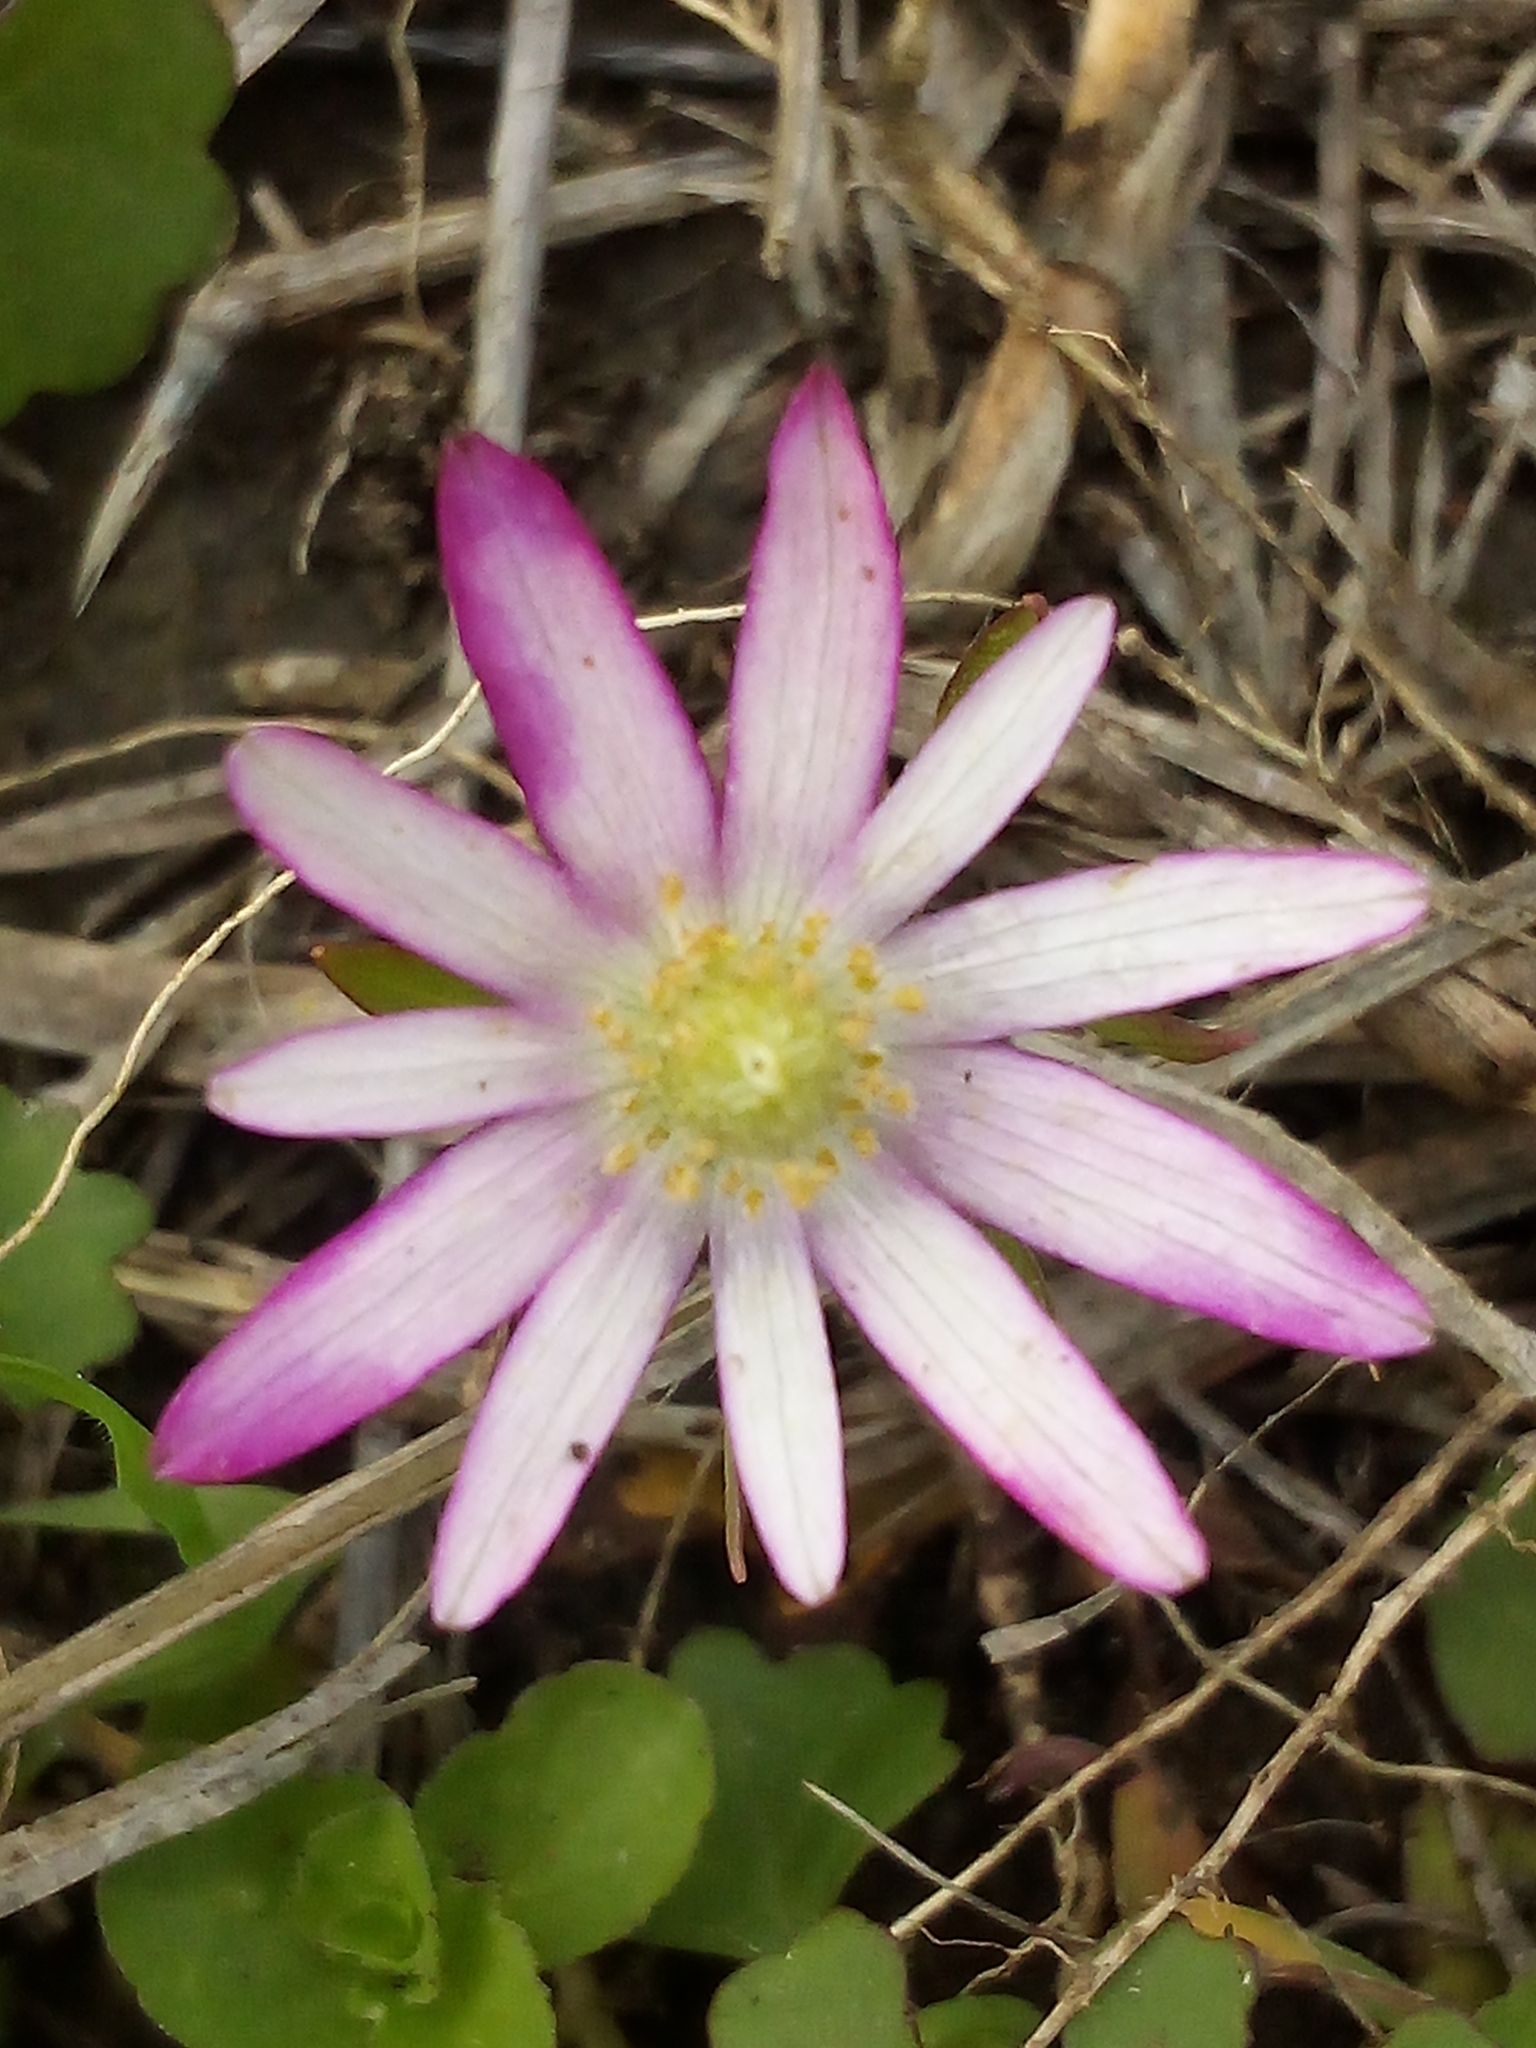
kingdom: Plantae
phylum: Tracheophyta
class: Magnoliopsida
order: Ranunculales
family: Ranunculaceae
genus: Anemone
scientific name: Anemone berlandieri
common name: Ten-petal anemone
